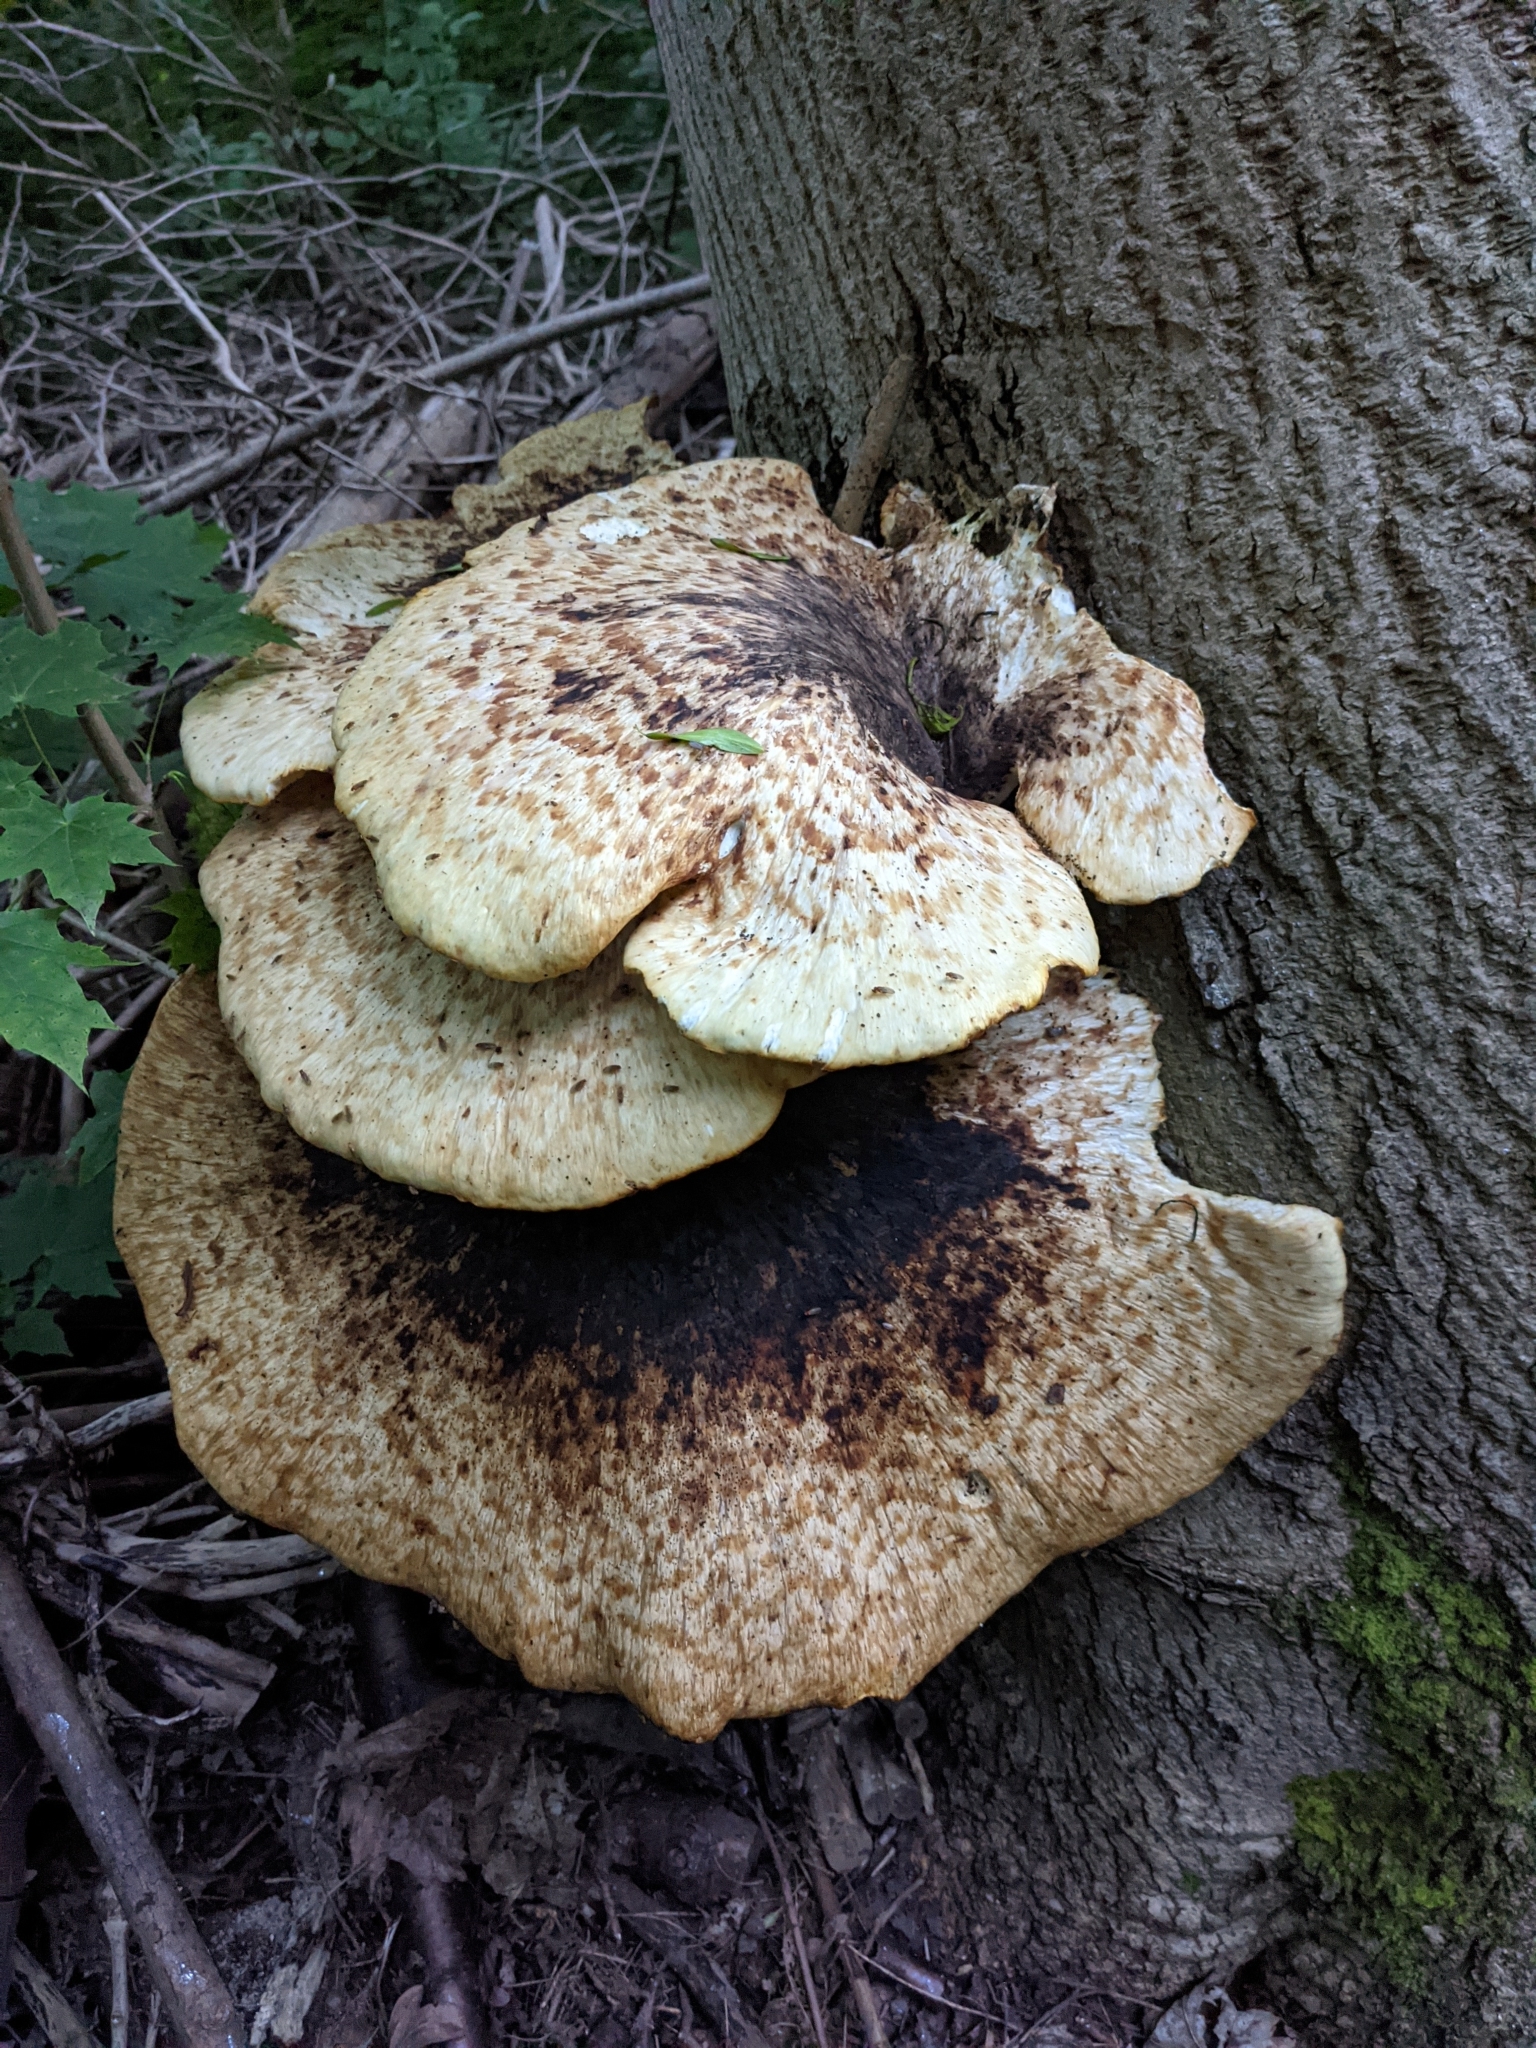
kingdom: Fungi
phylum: Basidiomycota
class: Agaricomycetes
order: Polyporales
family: Polyporaceae
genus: Cerioporus
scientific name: Cerioporus squamosus
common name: Dryad's saddle
